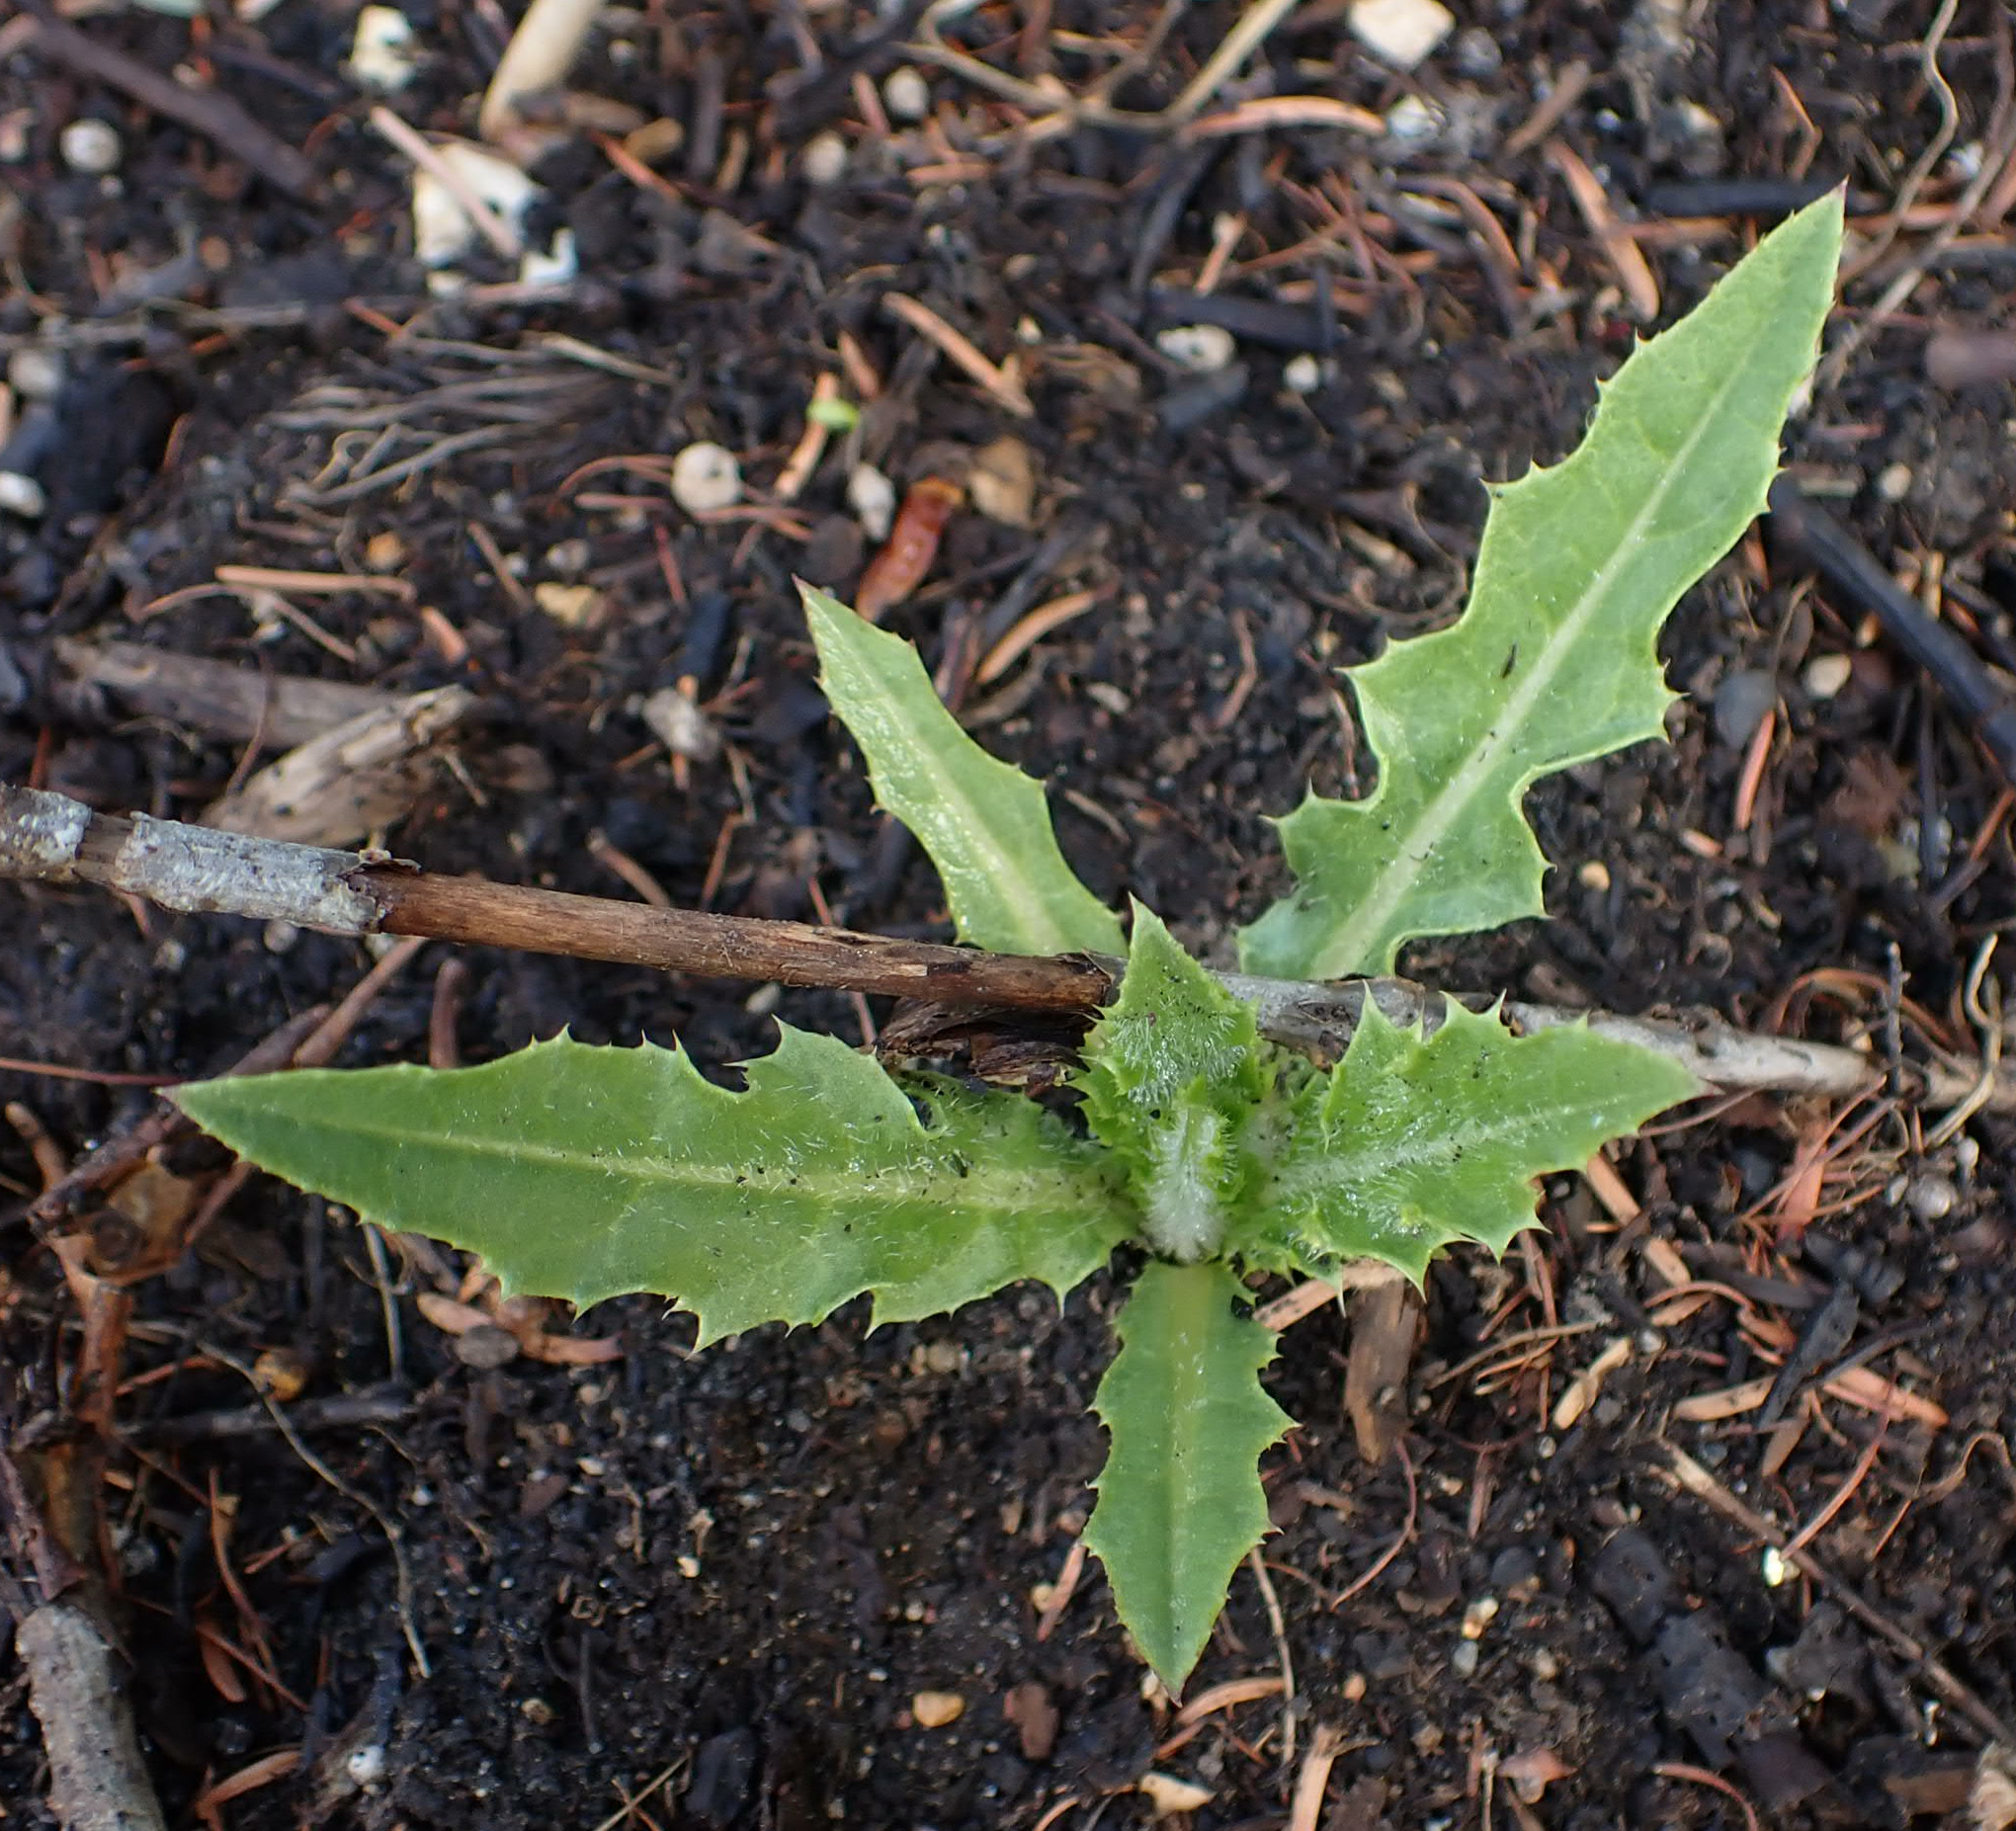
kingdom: Plantae
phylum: Tracheophyta
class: Magnoliopsida
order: Asterales
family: Asteraceae
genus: Cirsium
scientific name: Cirsium arvense
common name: Creeping thistle
